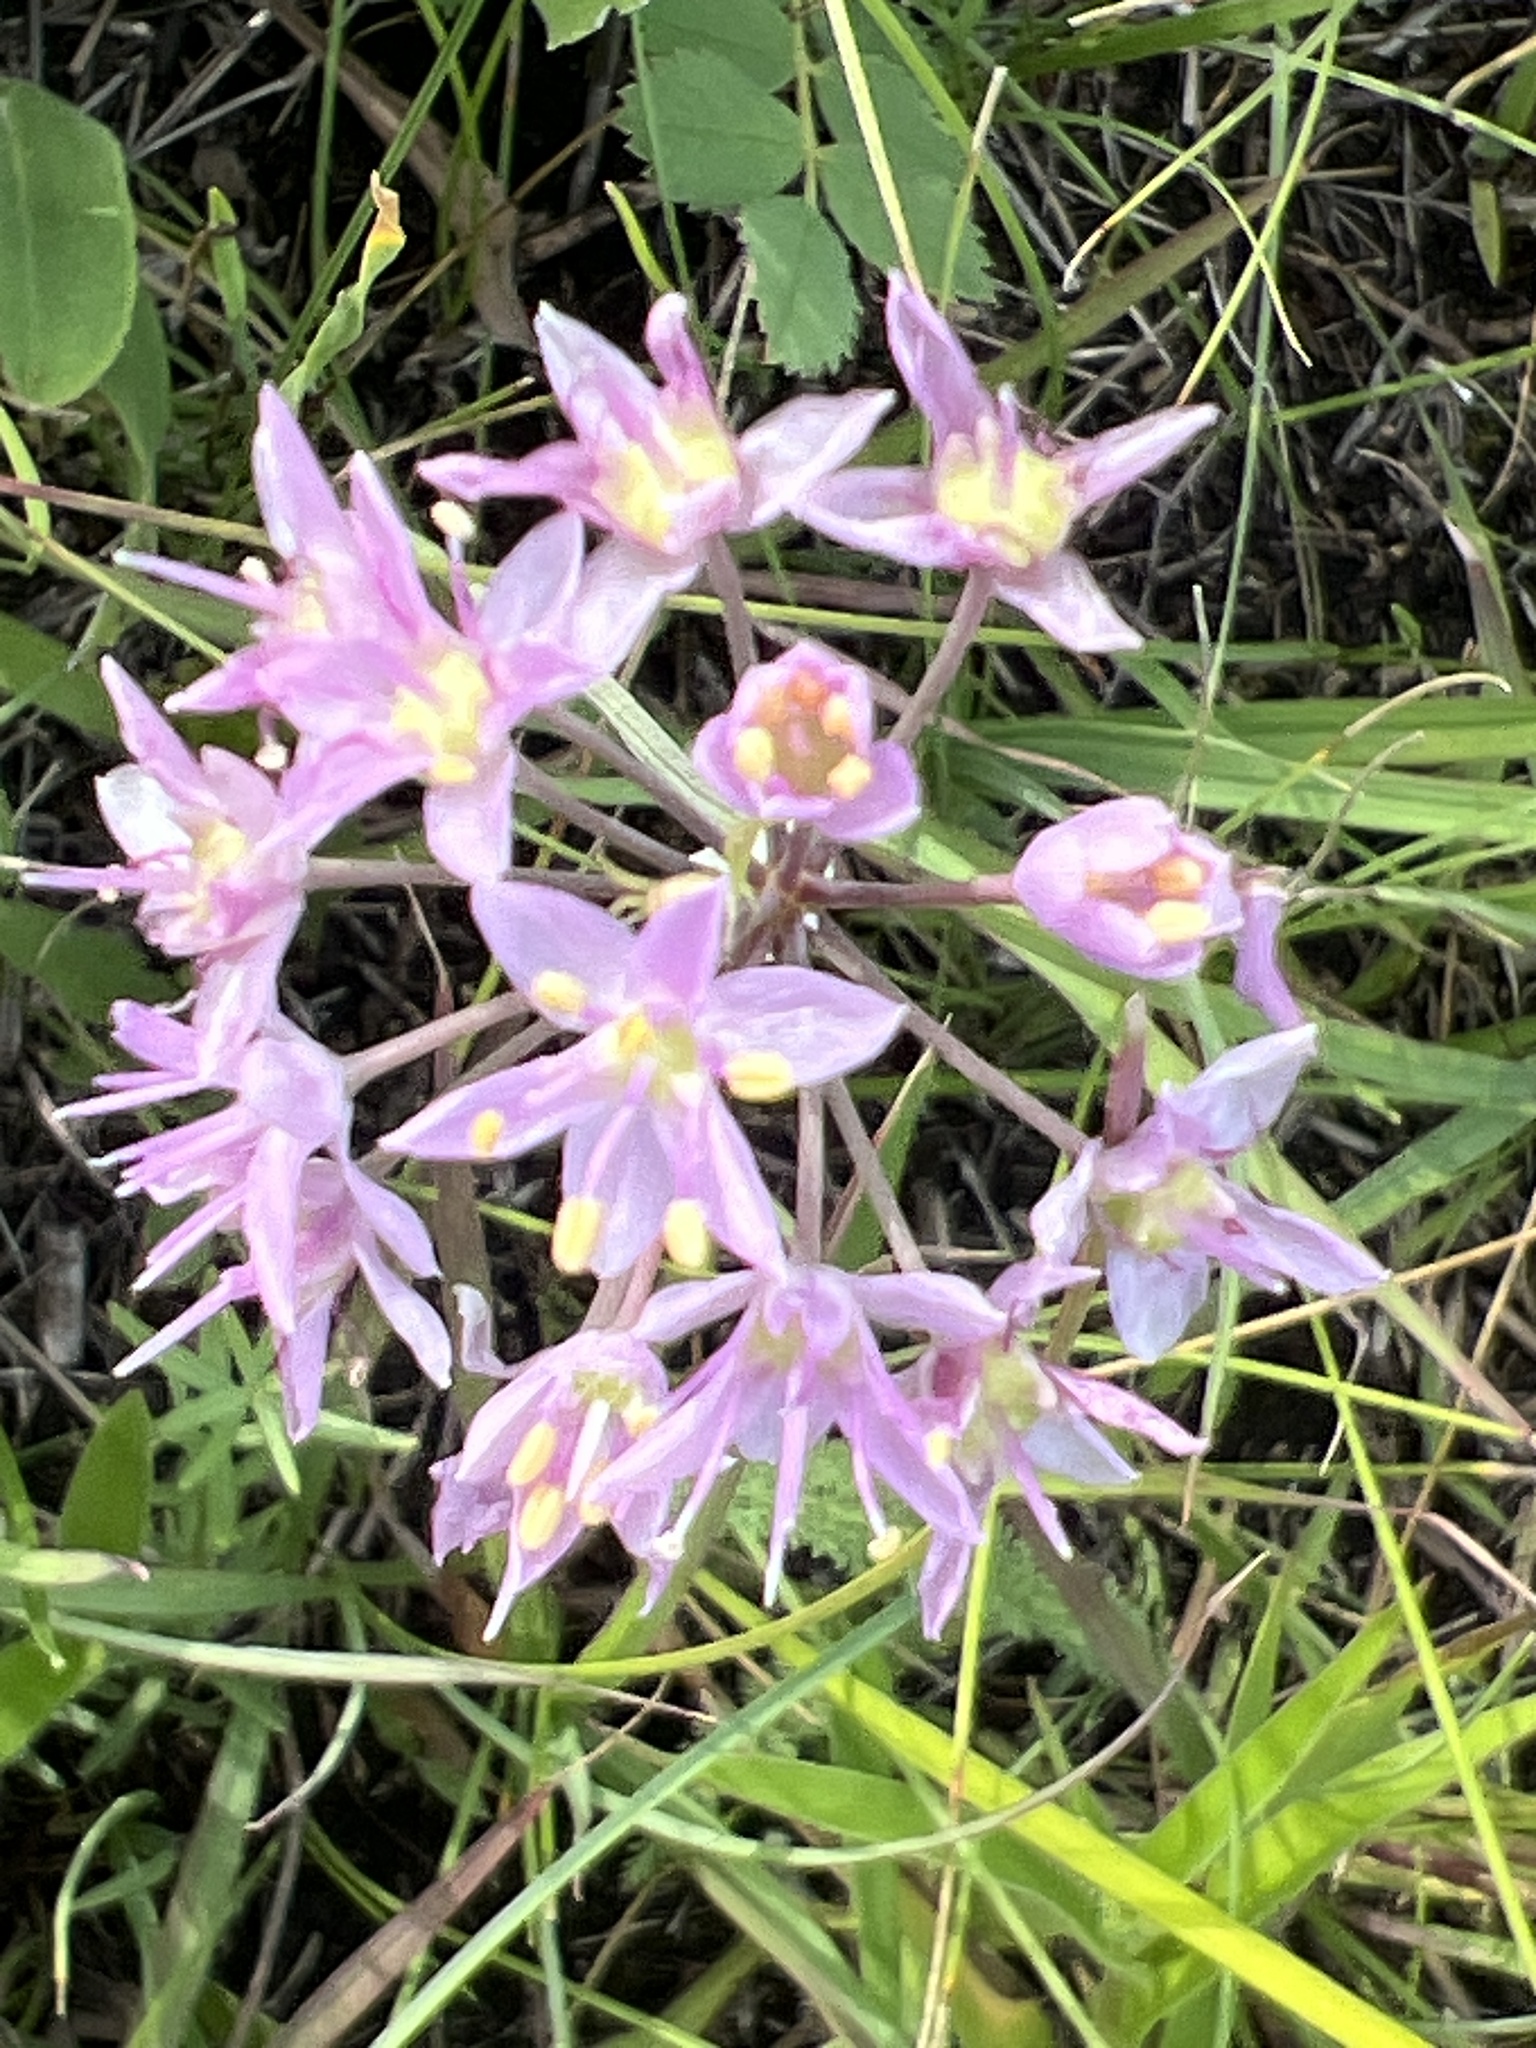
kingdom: Plantae
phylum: Tracheophyta
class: Liliopsida
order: Asparagales
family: Amaryllidaceae
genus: Allium
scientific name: Allium stellatum
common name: Autumn onion
